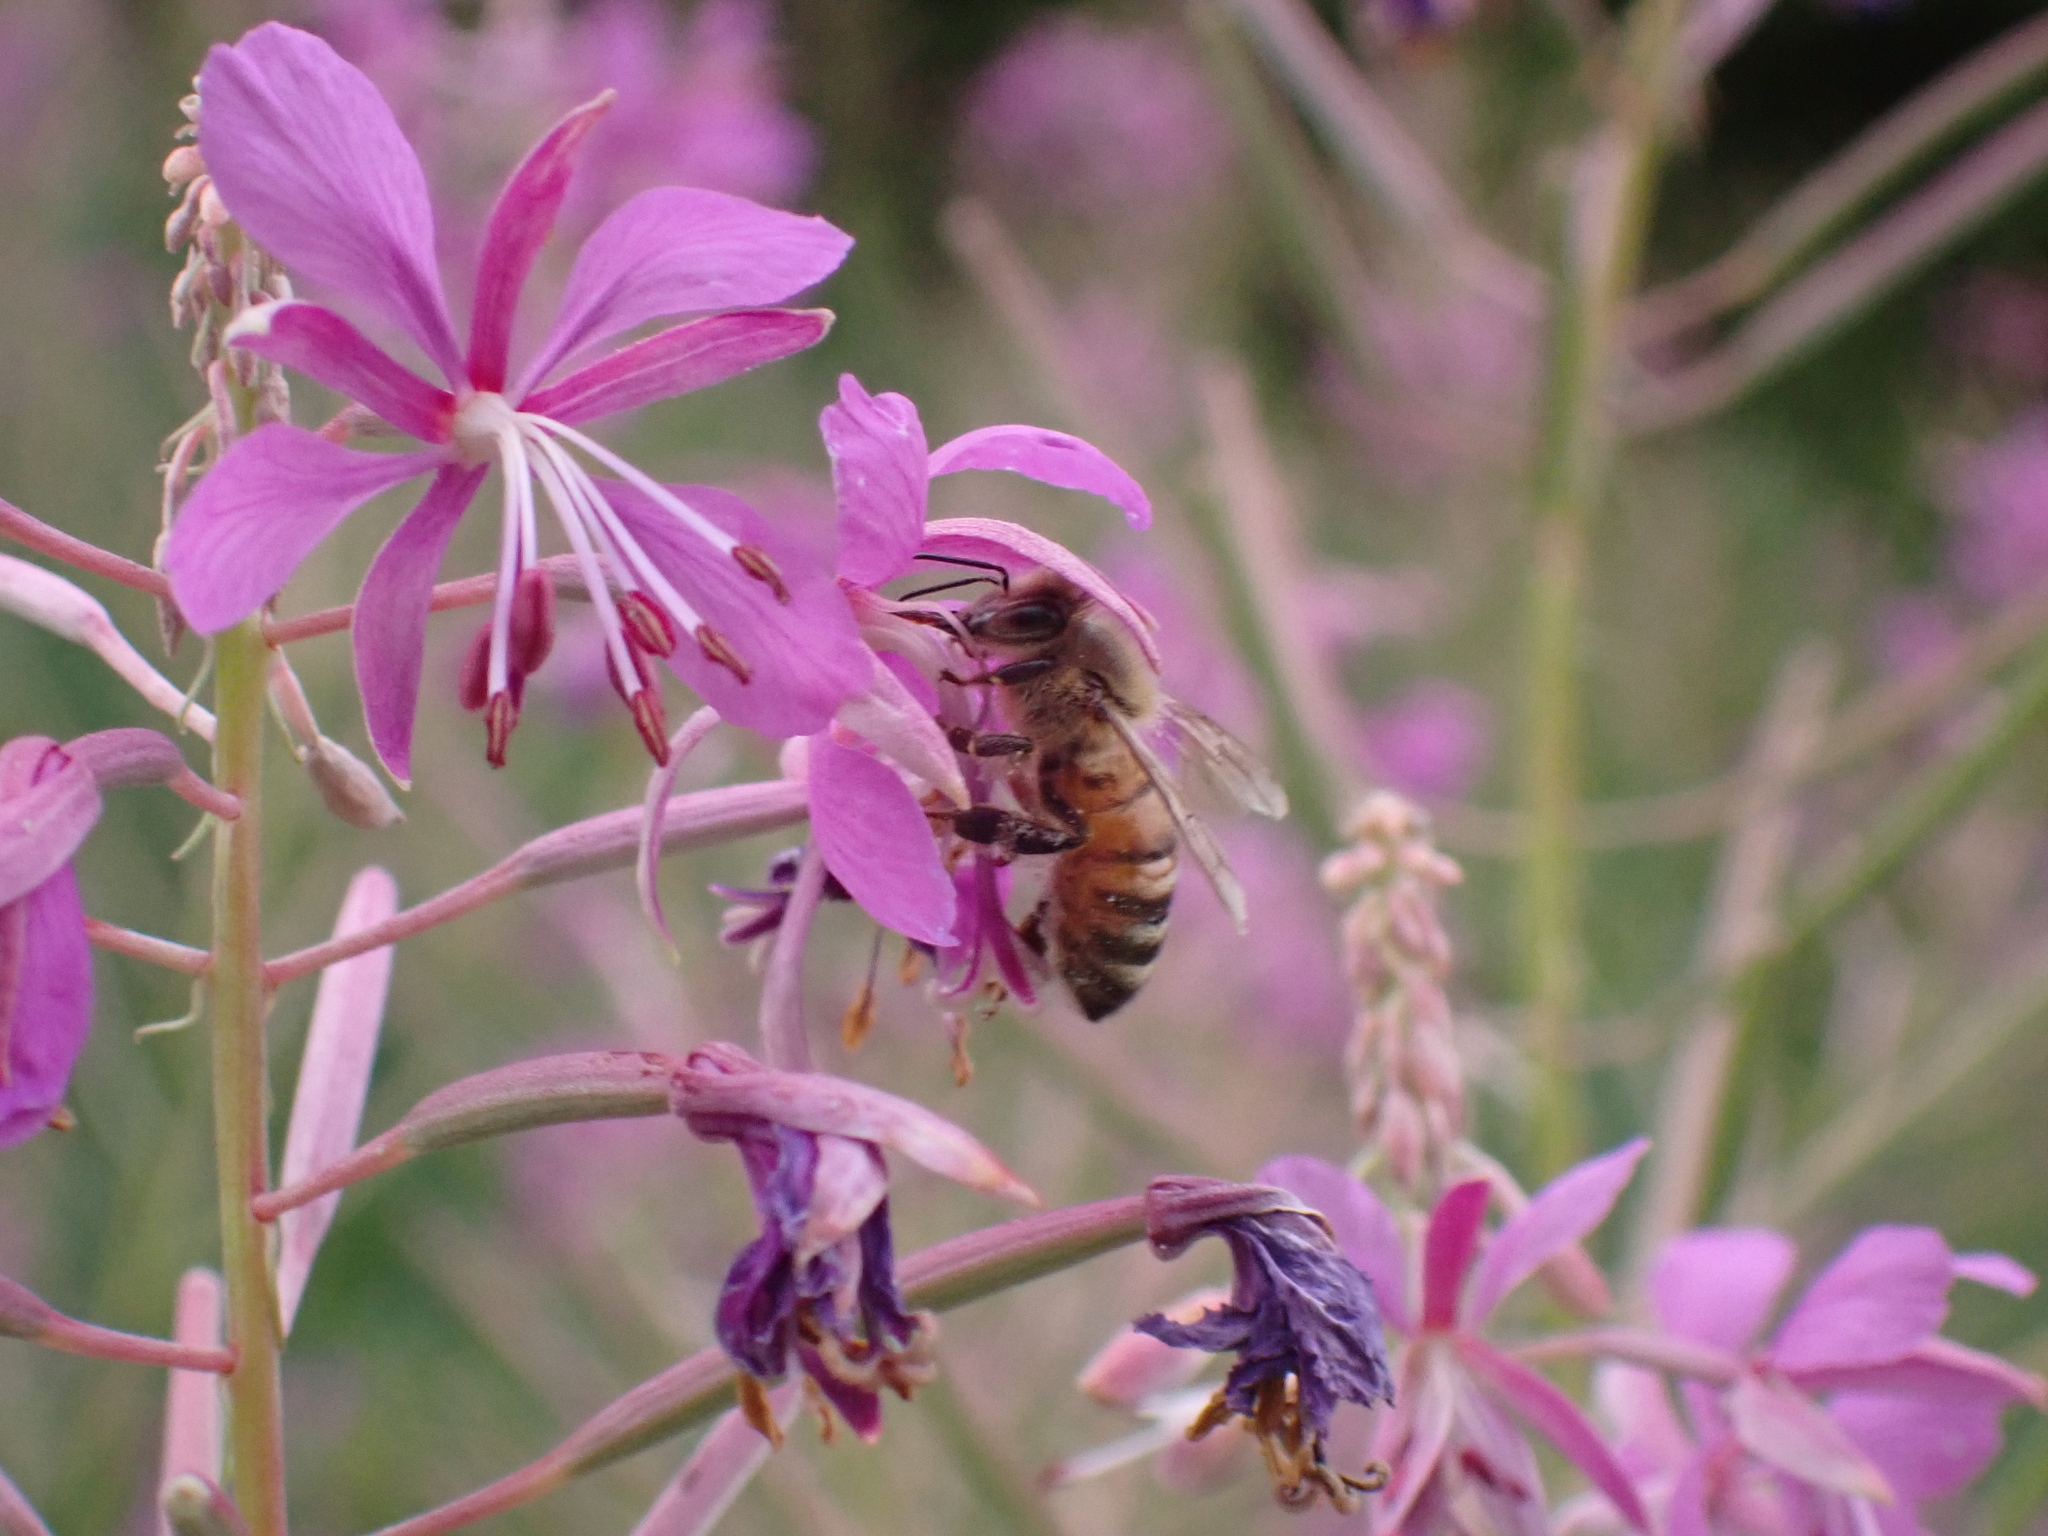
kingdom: Animalia
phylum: Arthropoda
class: Insecta
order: Hymenoptera
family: Apidae
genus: Apis
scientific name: Apis mellifera
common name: Honey bee
